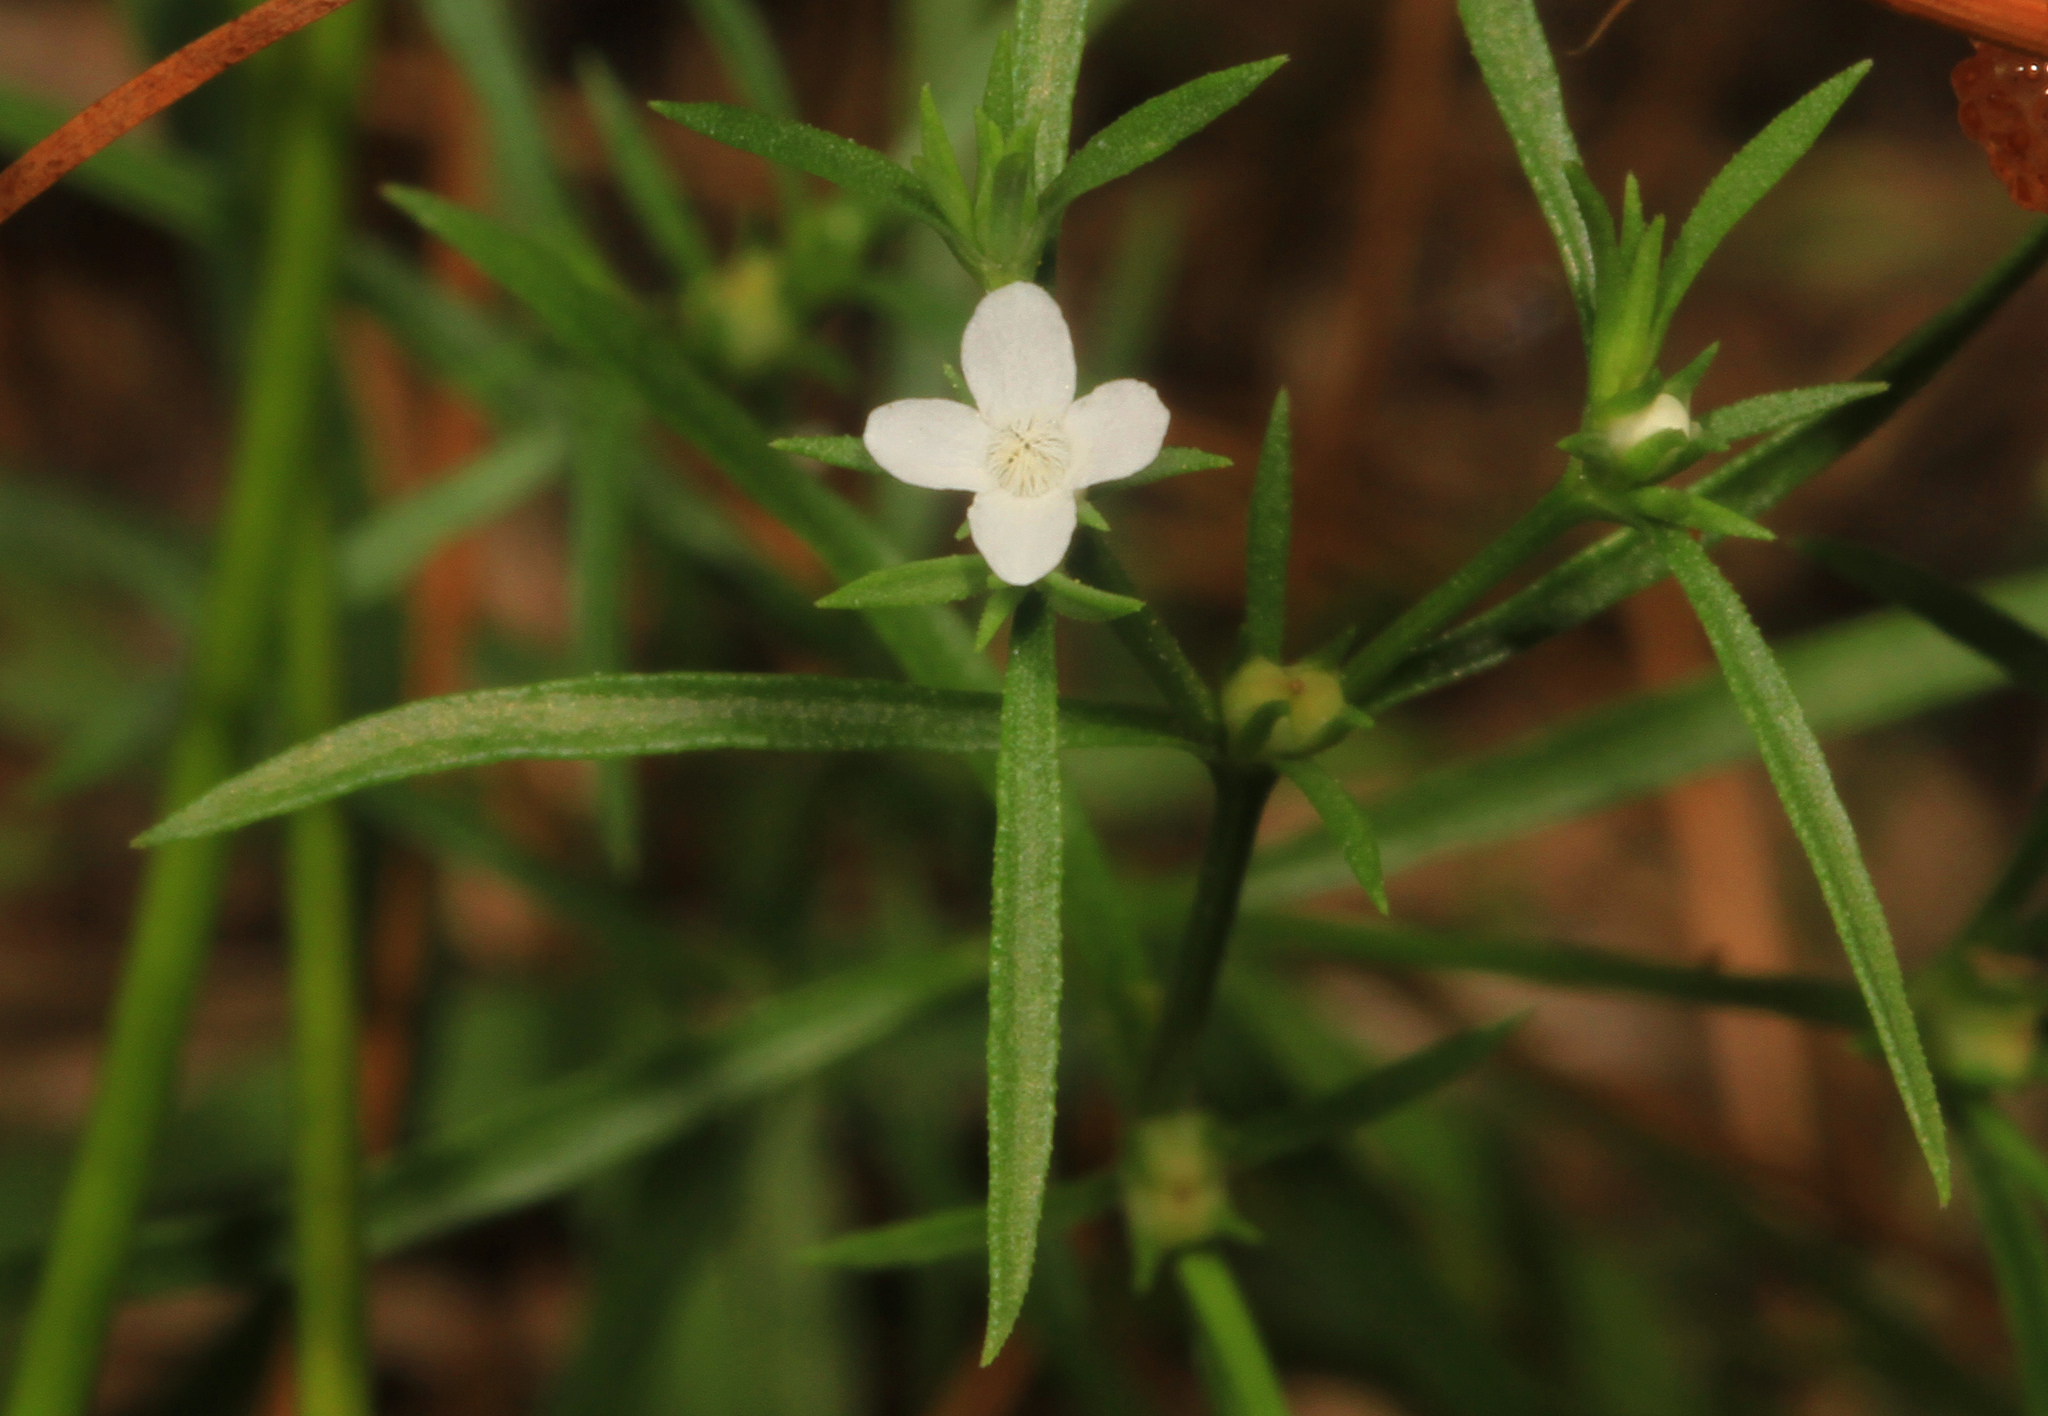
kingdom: Plantae
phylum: Tracheophyta
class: Magnoliopsida
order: Lamiales
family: Tetrachondraceae
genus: Polypremum
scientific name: Polypremum procumbens
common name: Juniper-leaf
